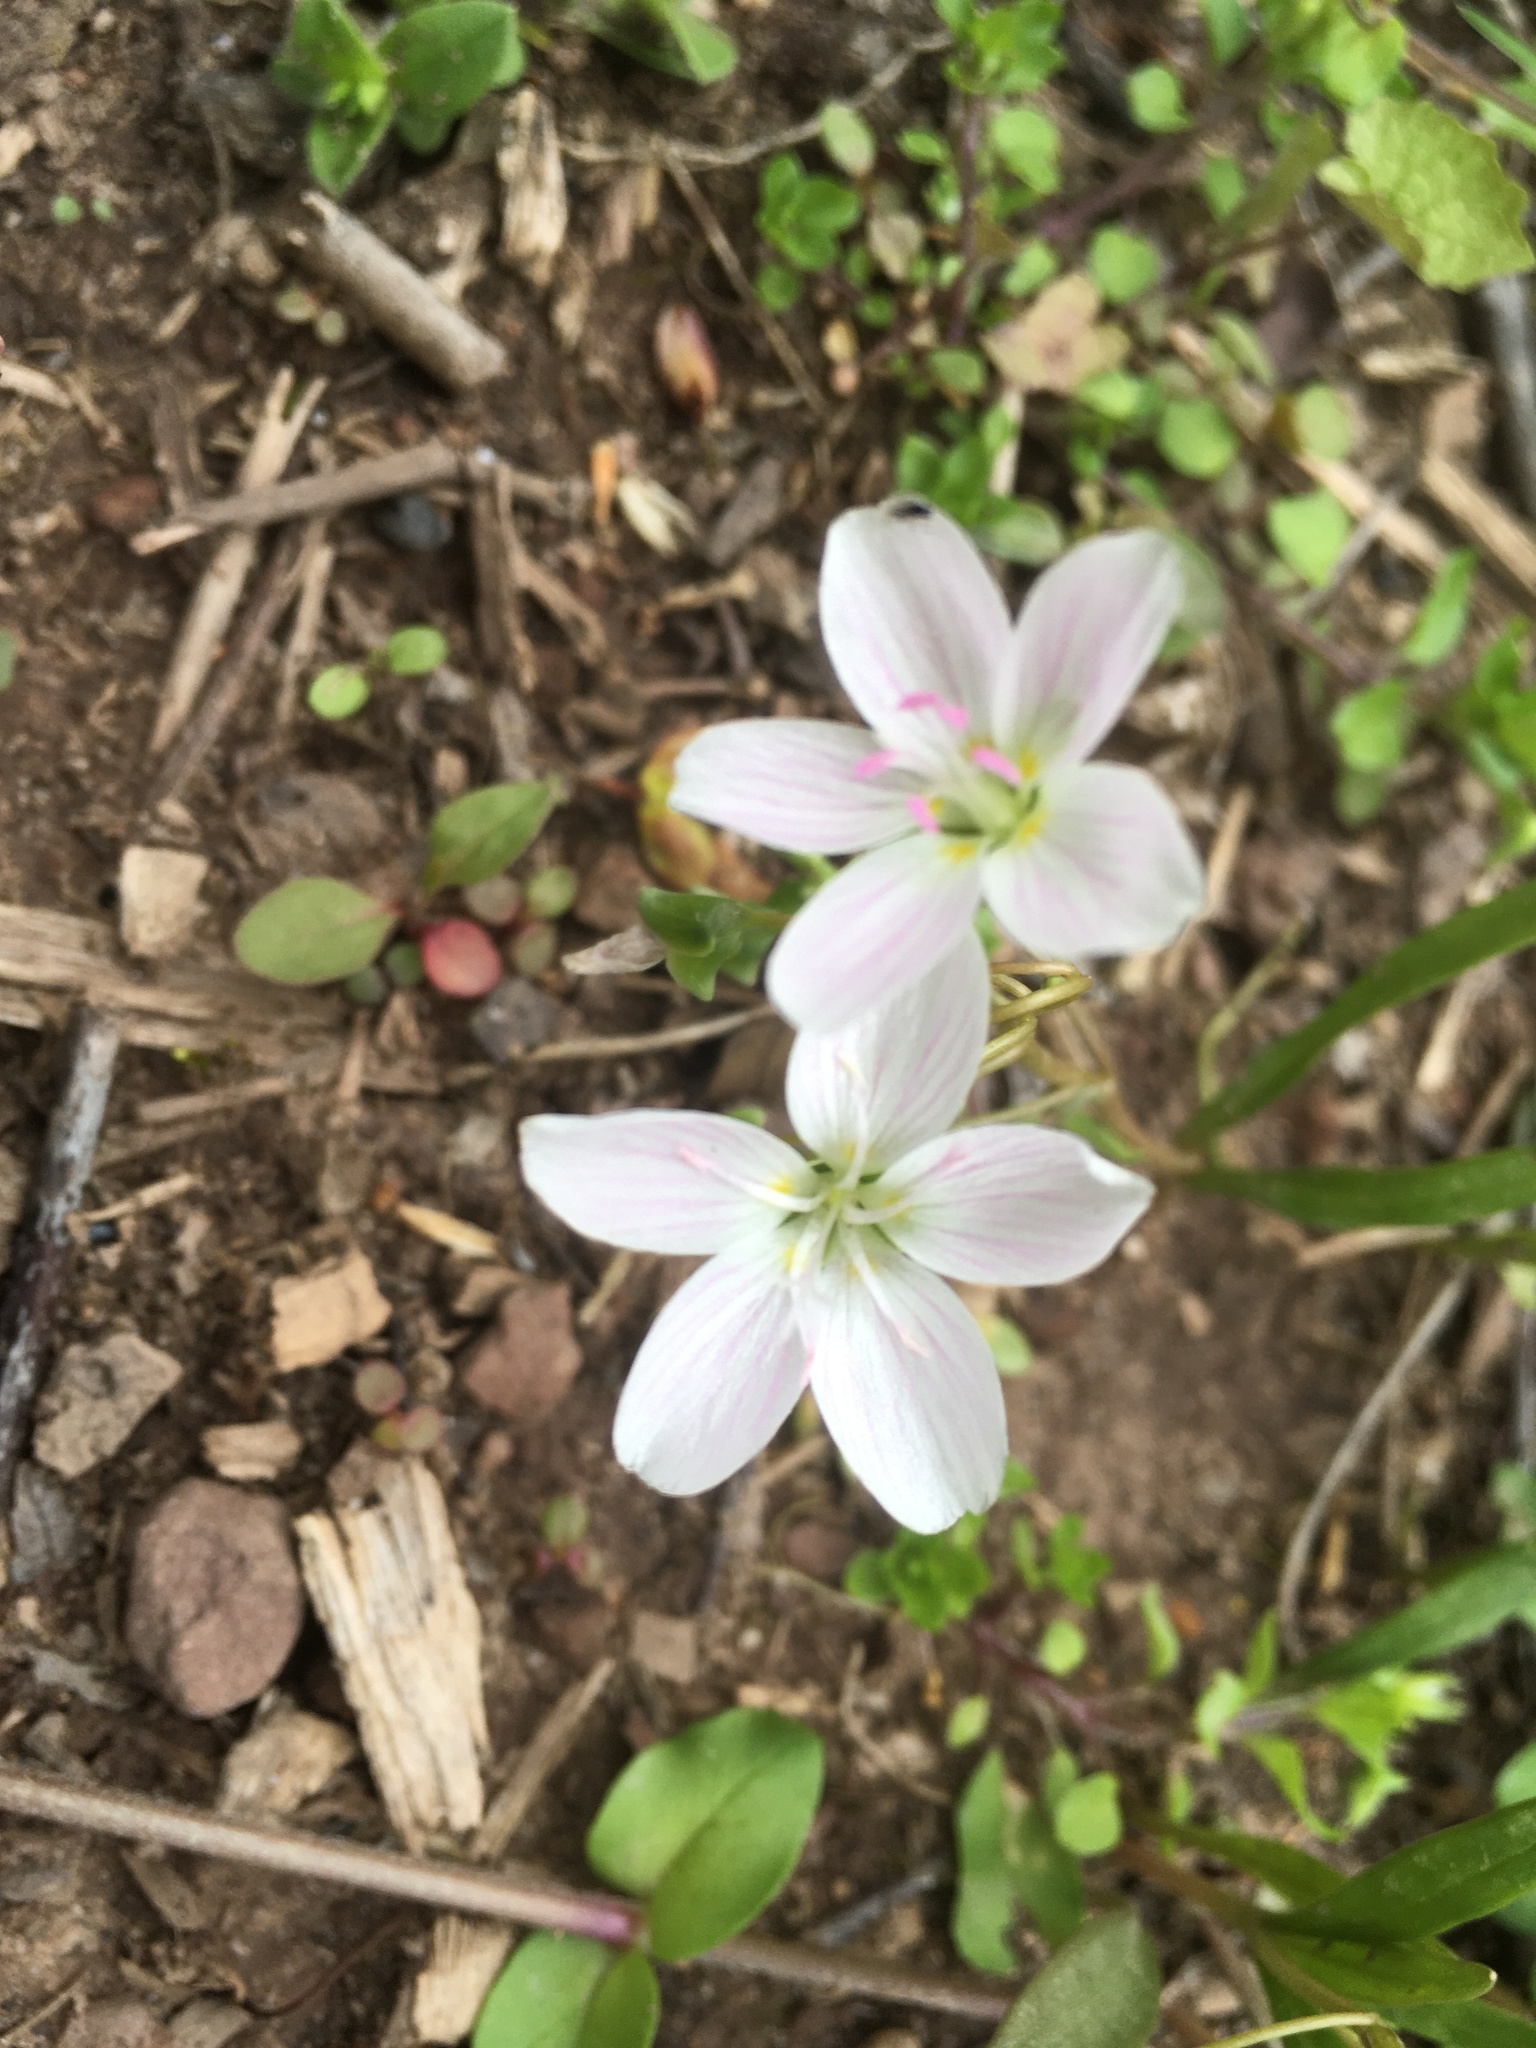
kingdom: Plantae
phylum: Tracheophyta
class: Magnoliopsida
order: Caryophyllales
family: Montiaceae
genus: Claytonia
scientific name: Claytonia virginica
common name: Virginia springbeauty
